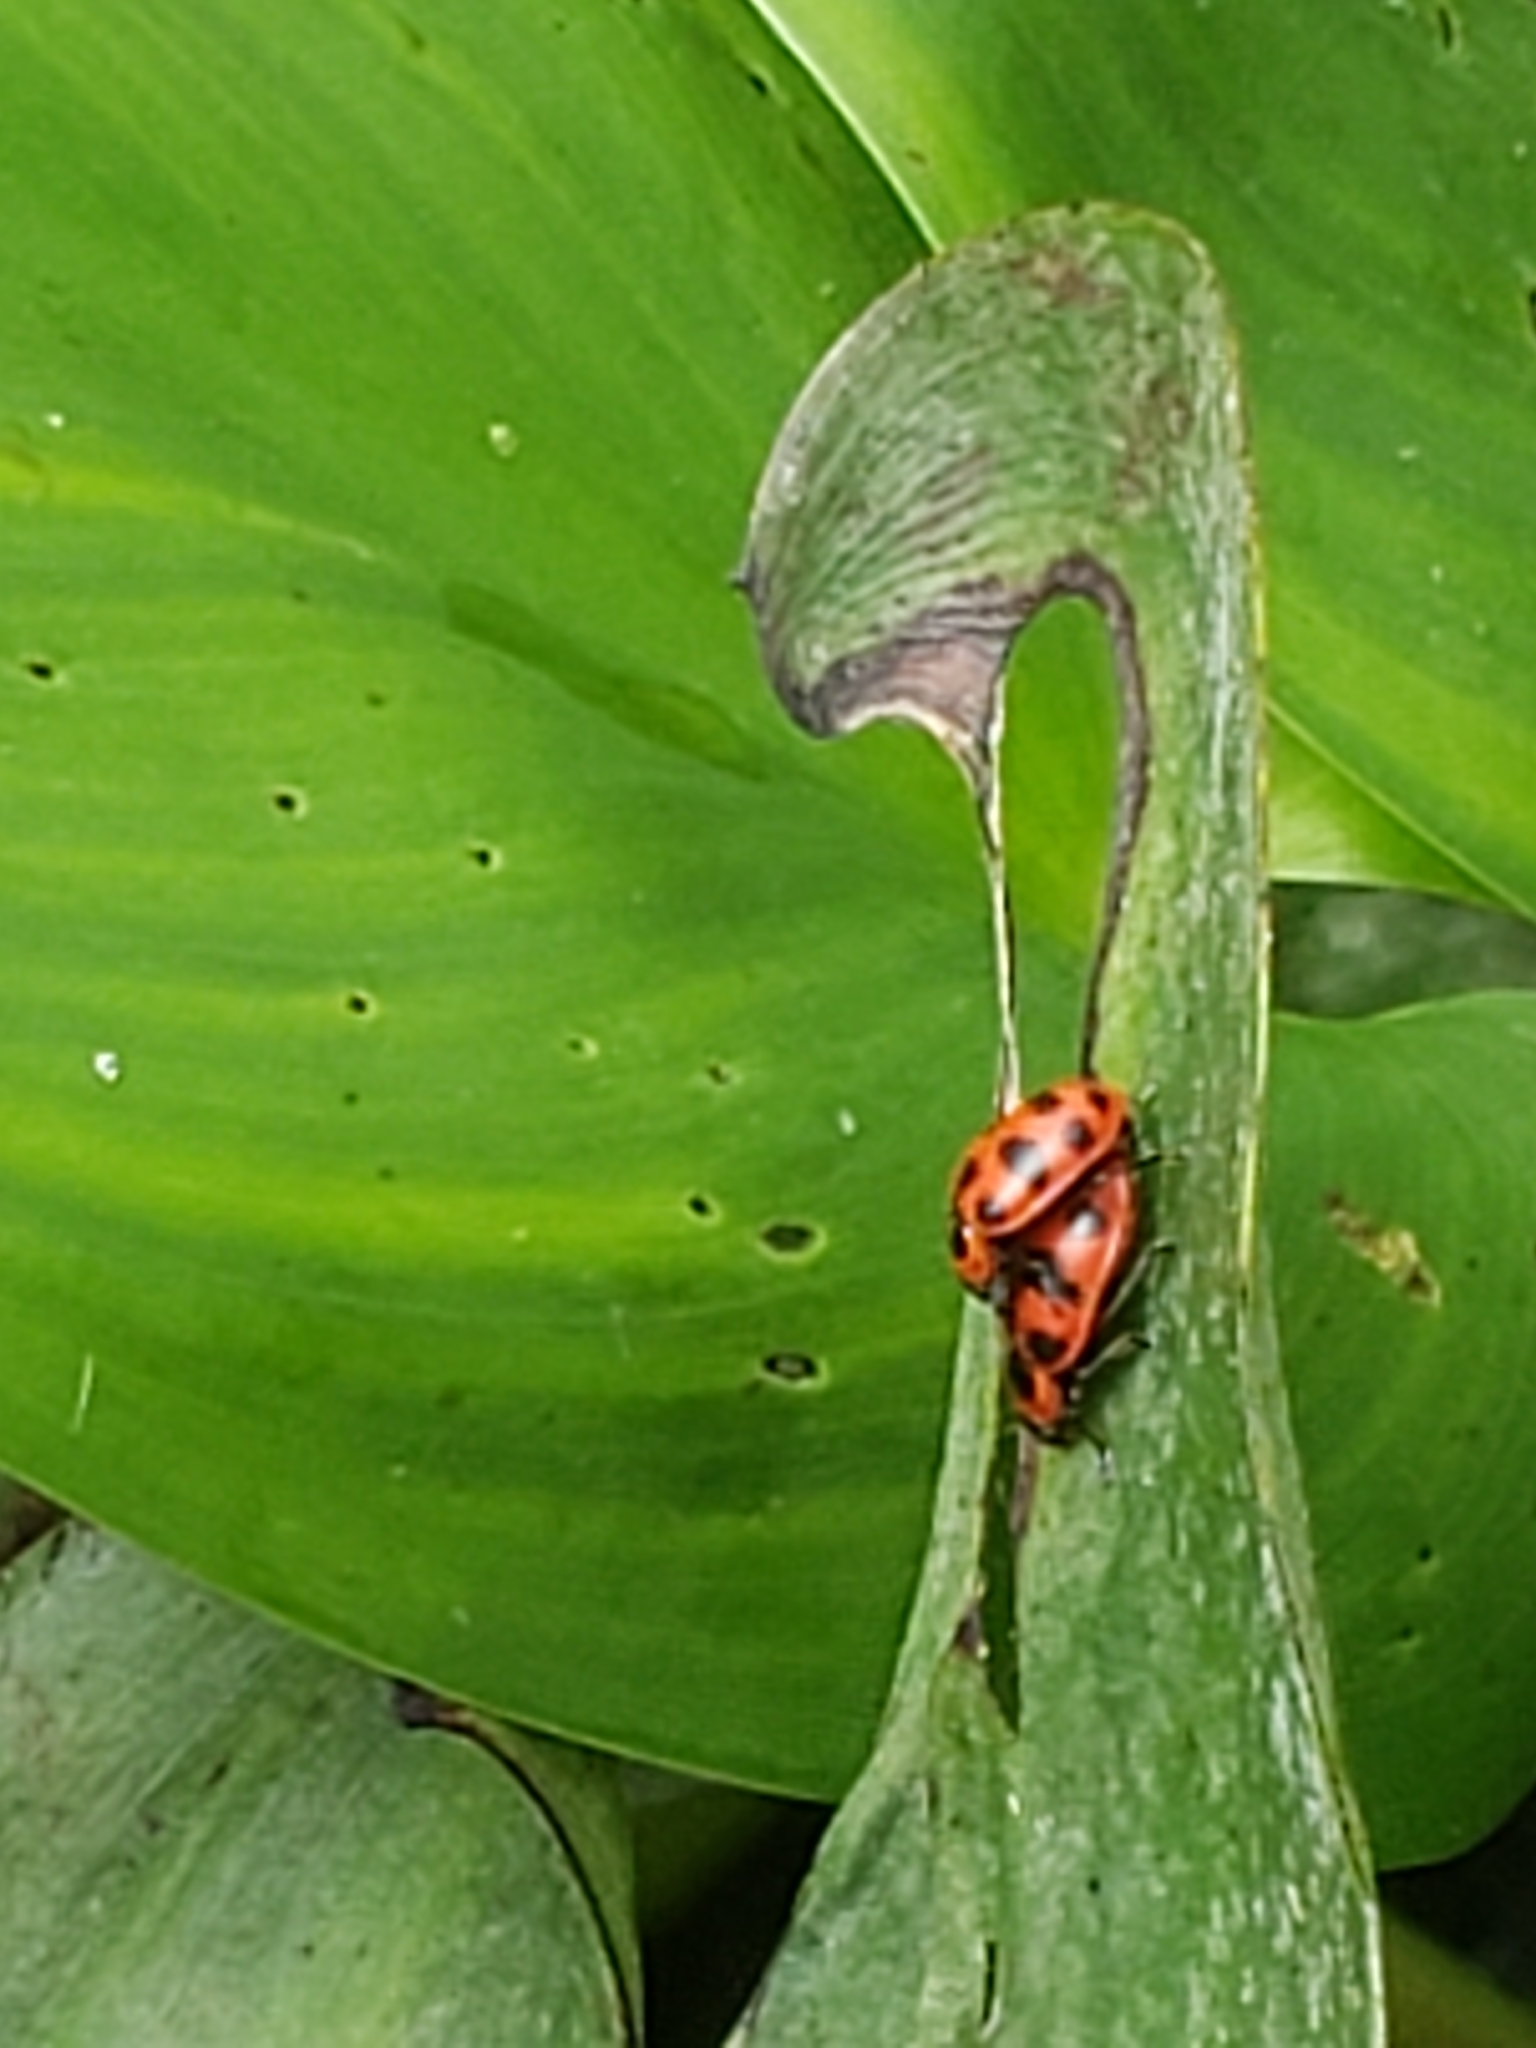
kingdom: Animalia
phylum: Arthropoda
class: Insecta
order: Coleoptera
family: Coccinellidae
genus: Coleomegilla
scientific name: Coleomegilla maculata
